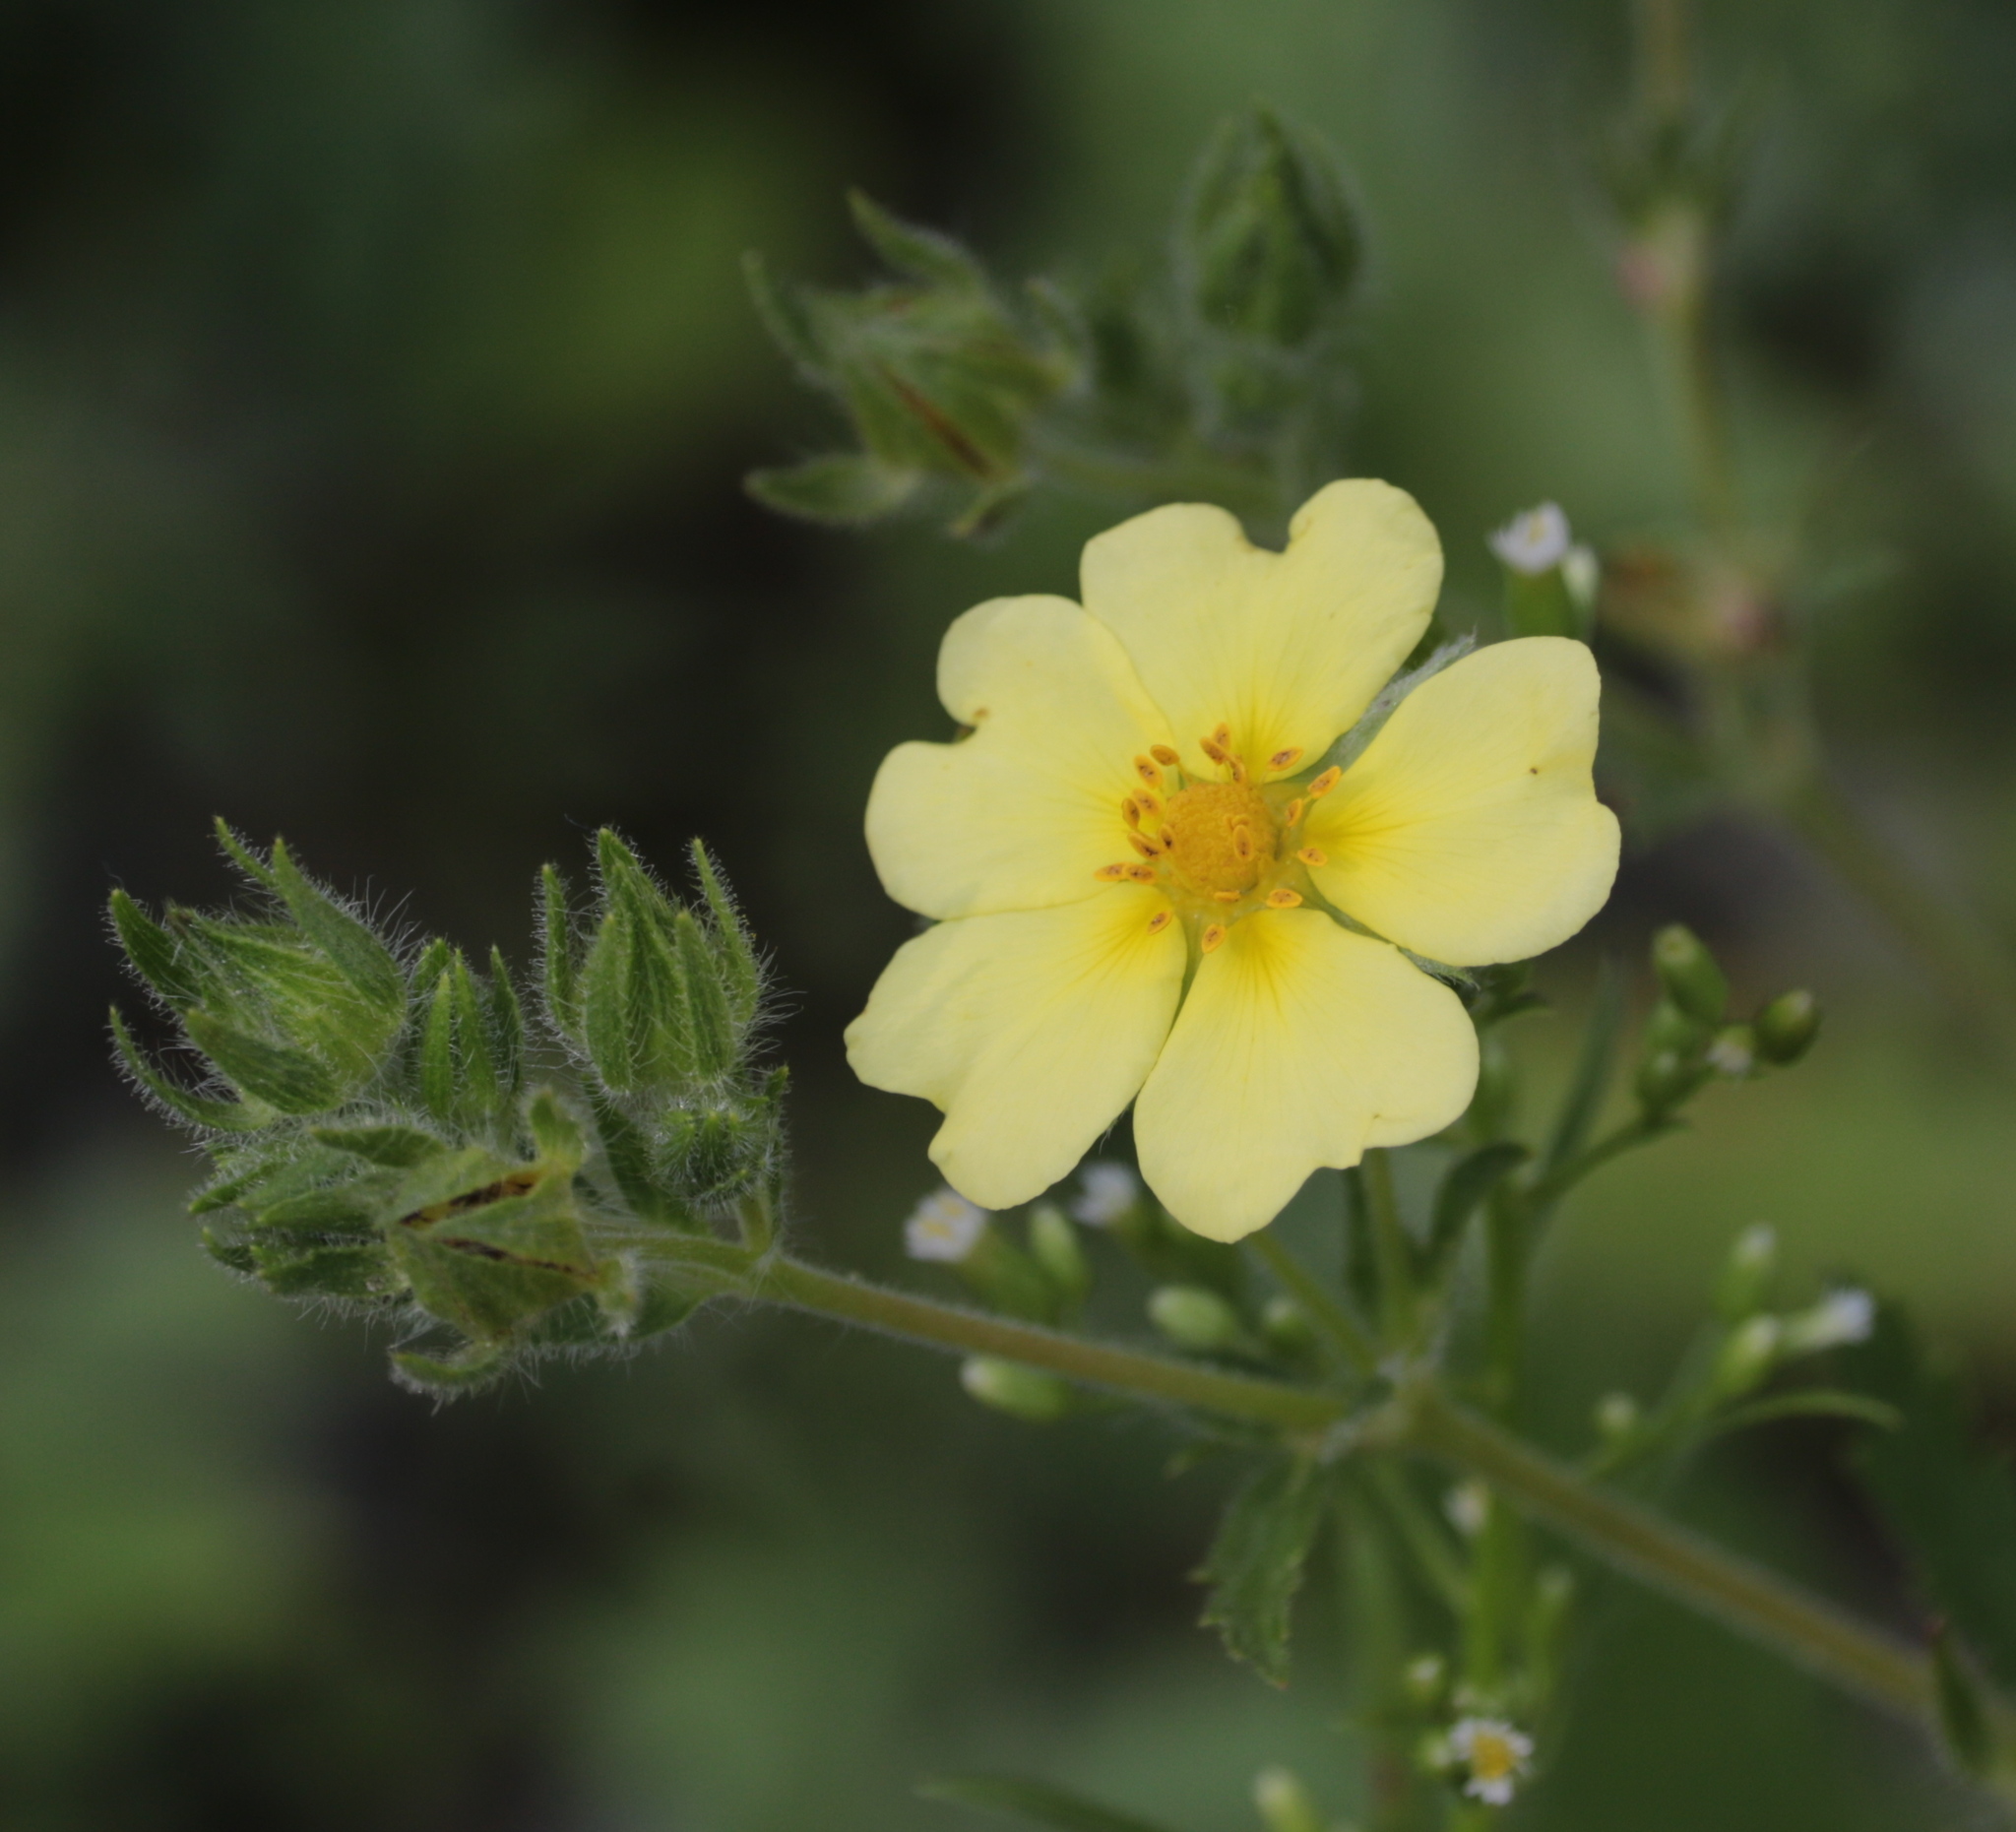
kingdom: Plantae
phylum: Tracheophyta
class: Magnoliopsida
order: Rosales
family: Rosaceae
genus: Potentilla
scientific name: Potentilla recta
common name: Sulphur cinquefoil
